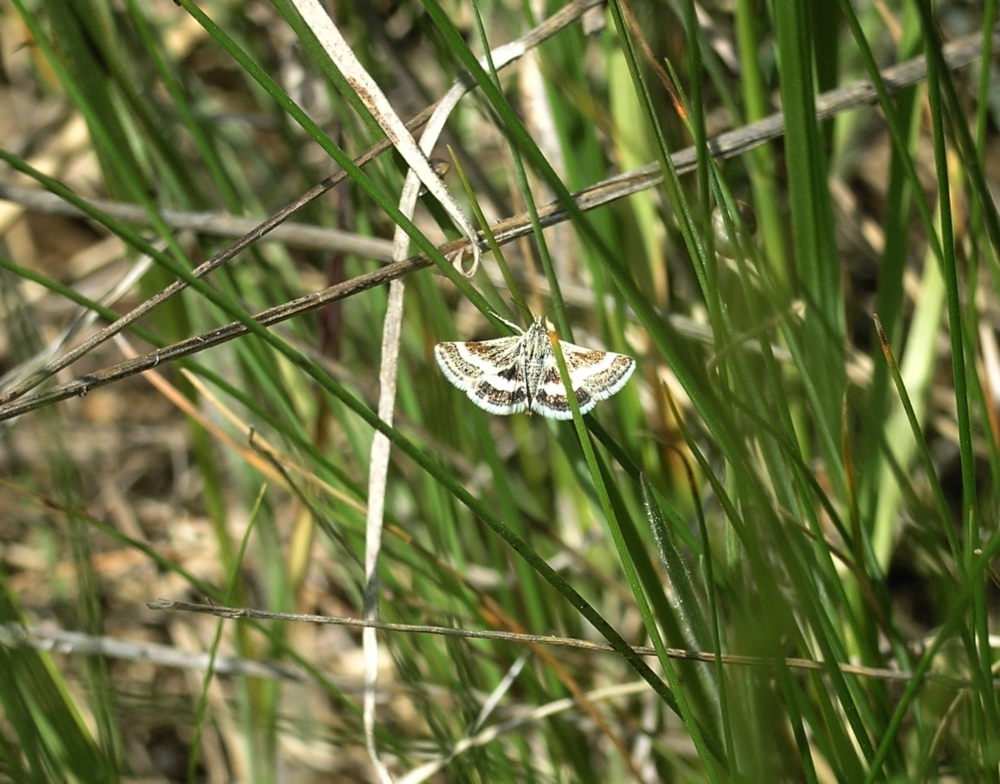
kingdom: Animalia
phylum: Arthropoda
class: Insecta
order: Lepidoptera
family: Crambidae
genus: Atralata
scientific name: Atralata albofascialis
